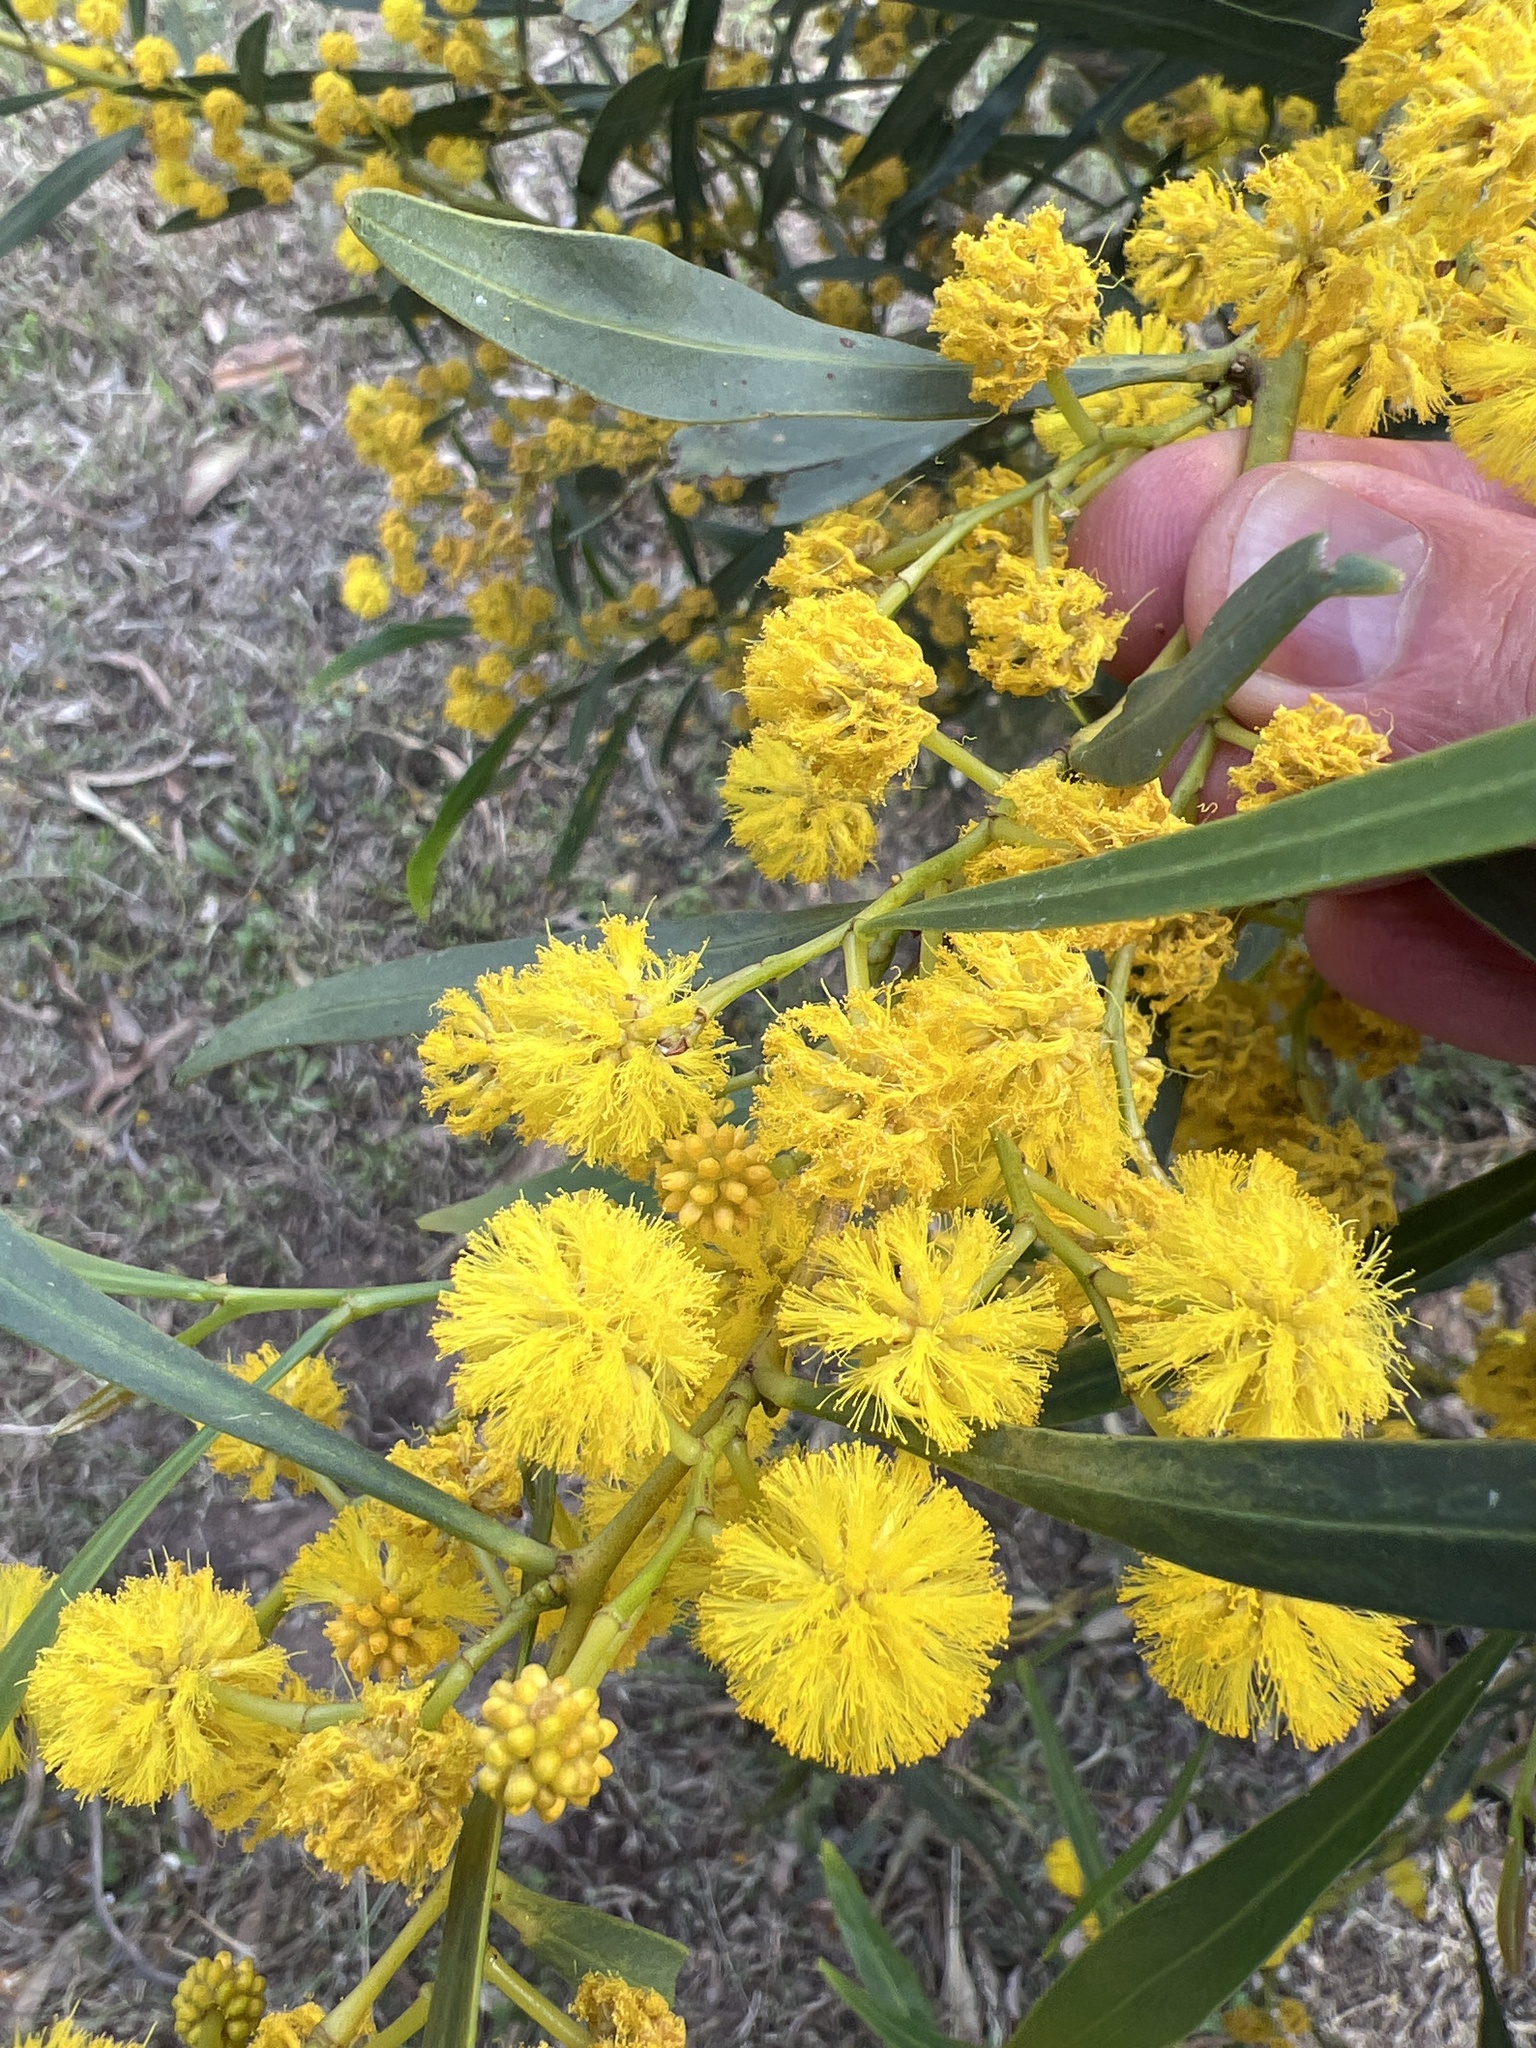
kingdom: Plantae
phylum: Tracheophyta
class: Magnoliopsida
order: Fabales
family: Fabaceae
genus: Acacia
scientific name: Acacia saligna
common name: Orange wattle
